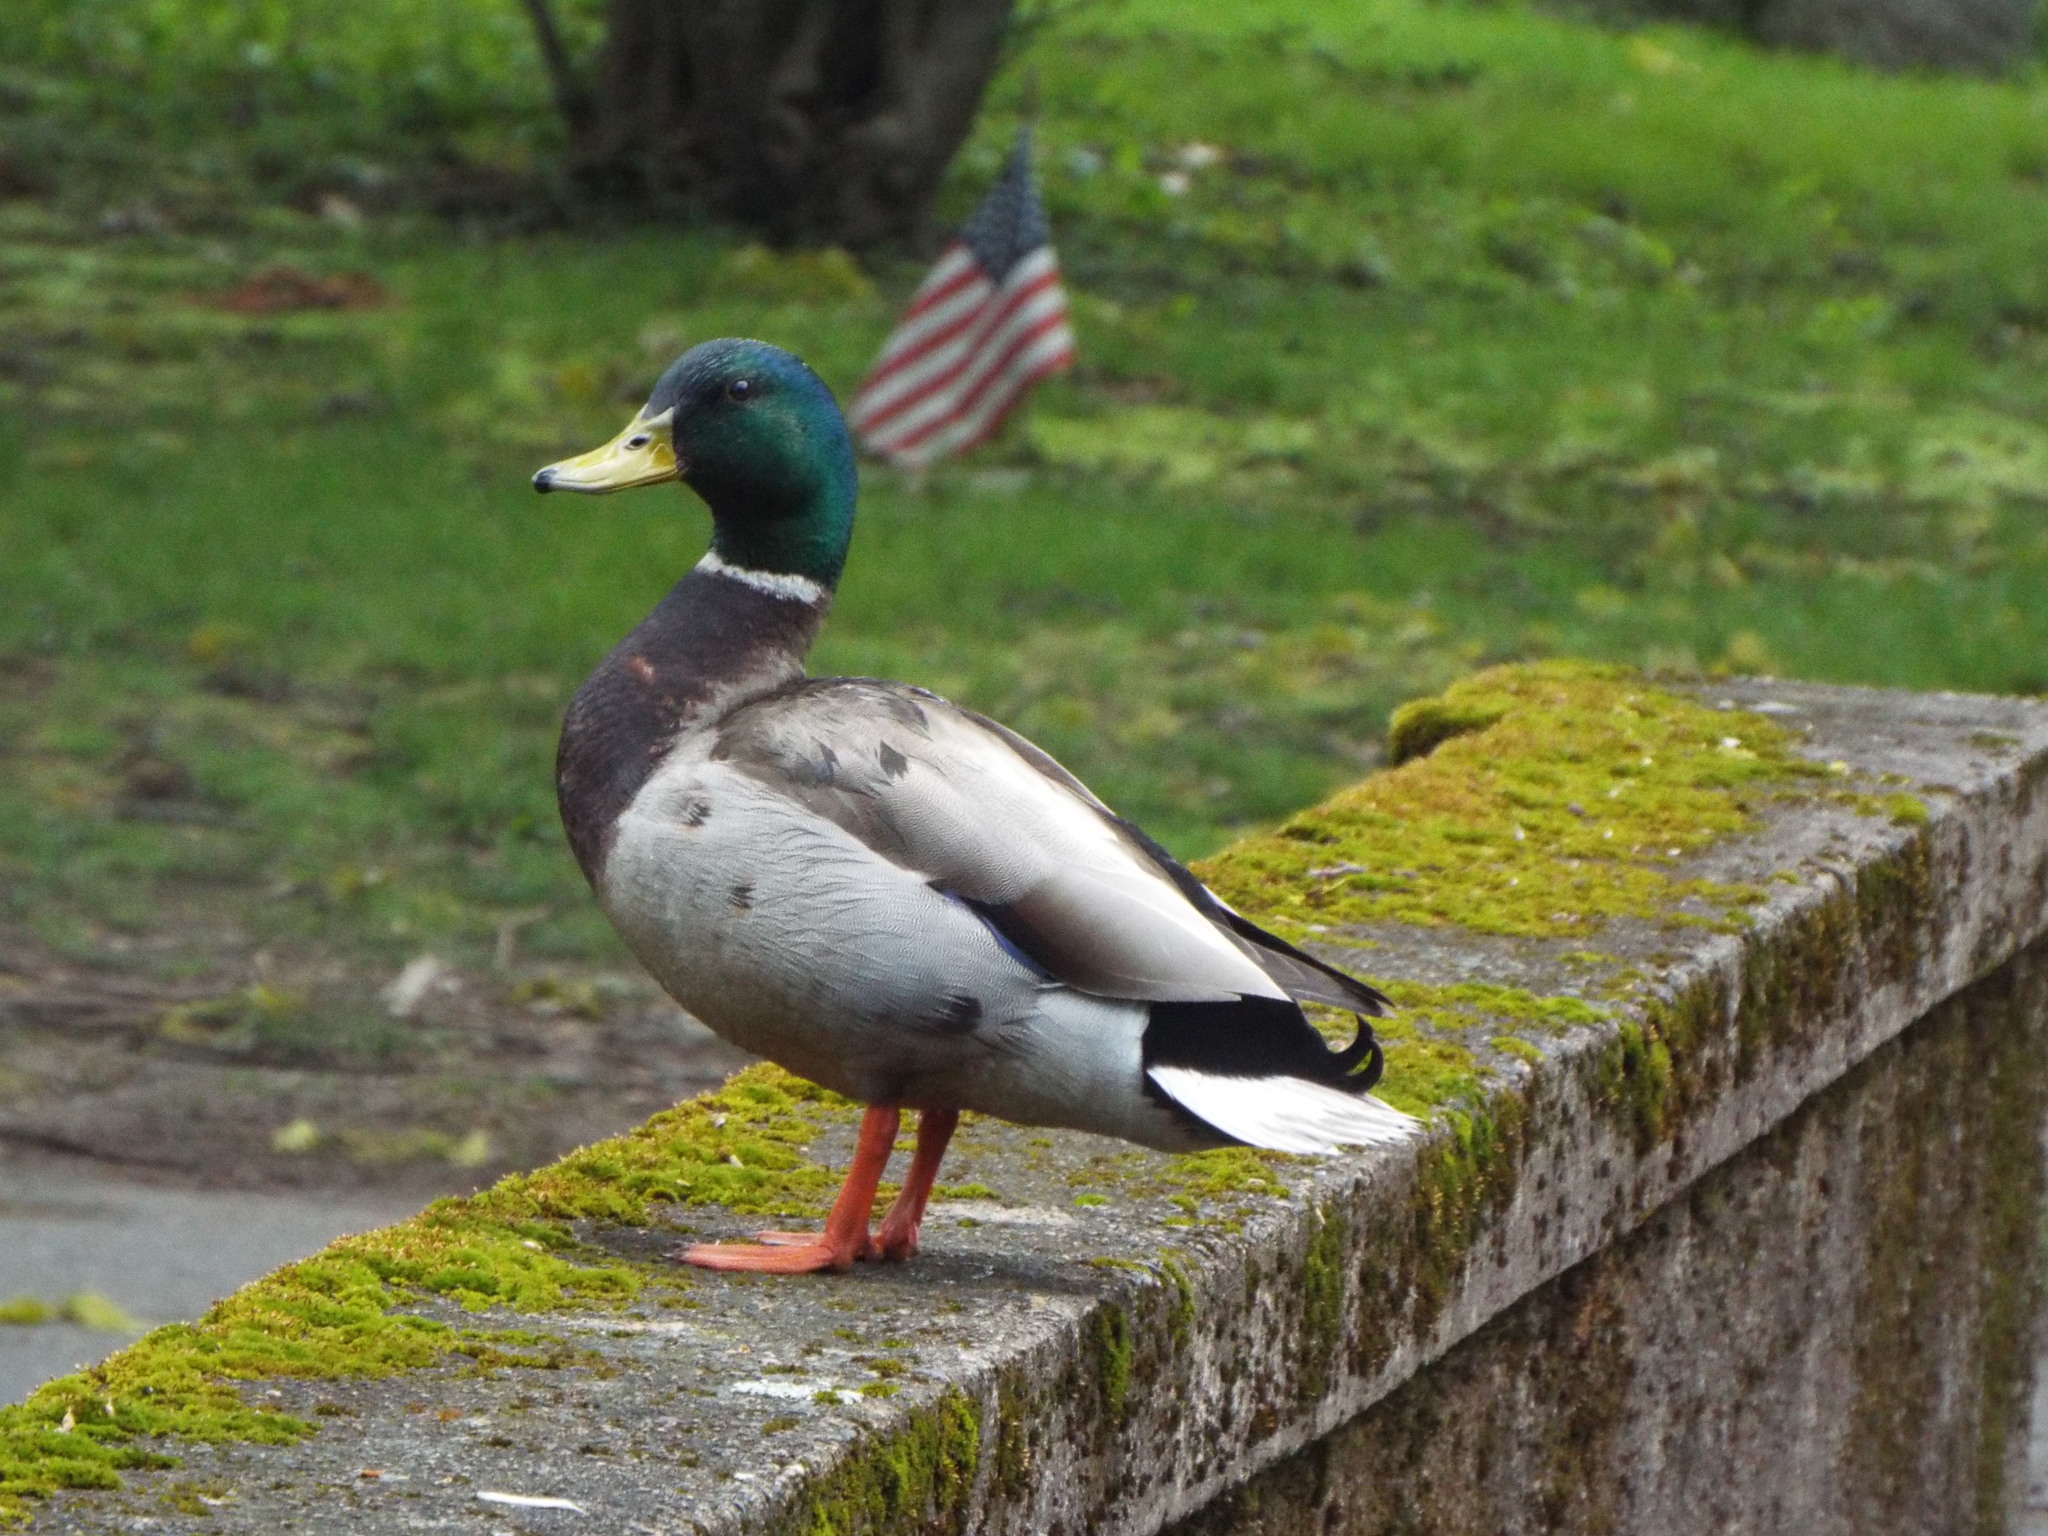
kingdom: Animalia
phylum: Chordata
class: Aves
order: Anseriformes
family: Anatidae
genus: Anas
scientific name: Anas platyrhynchos
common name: Mallard
